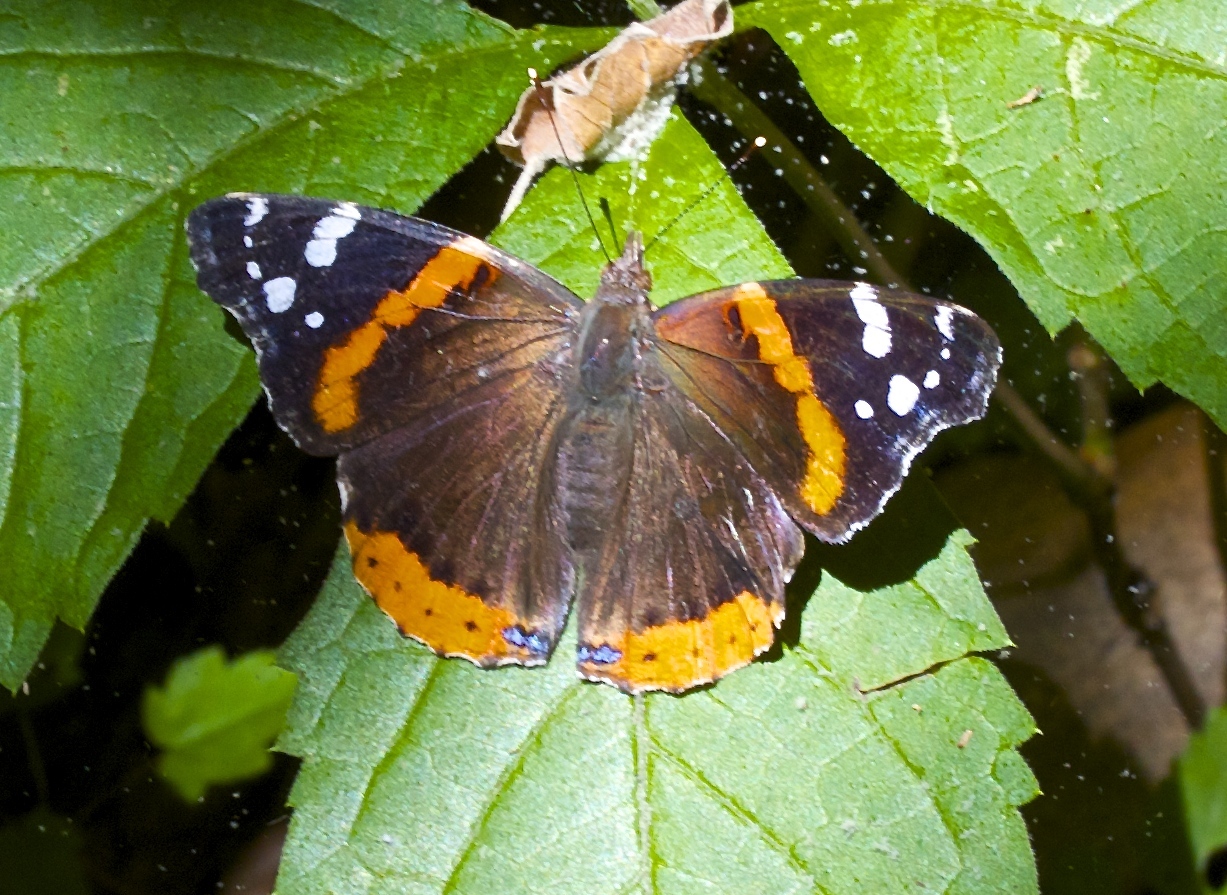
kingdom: Animalia
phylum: Arthropoda
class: Insecta
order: Lepidoptera
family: Nymphalidae
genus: Vanessa
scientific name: Vanessa atalanta
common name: Red admiral
